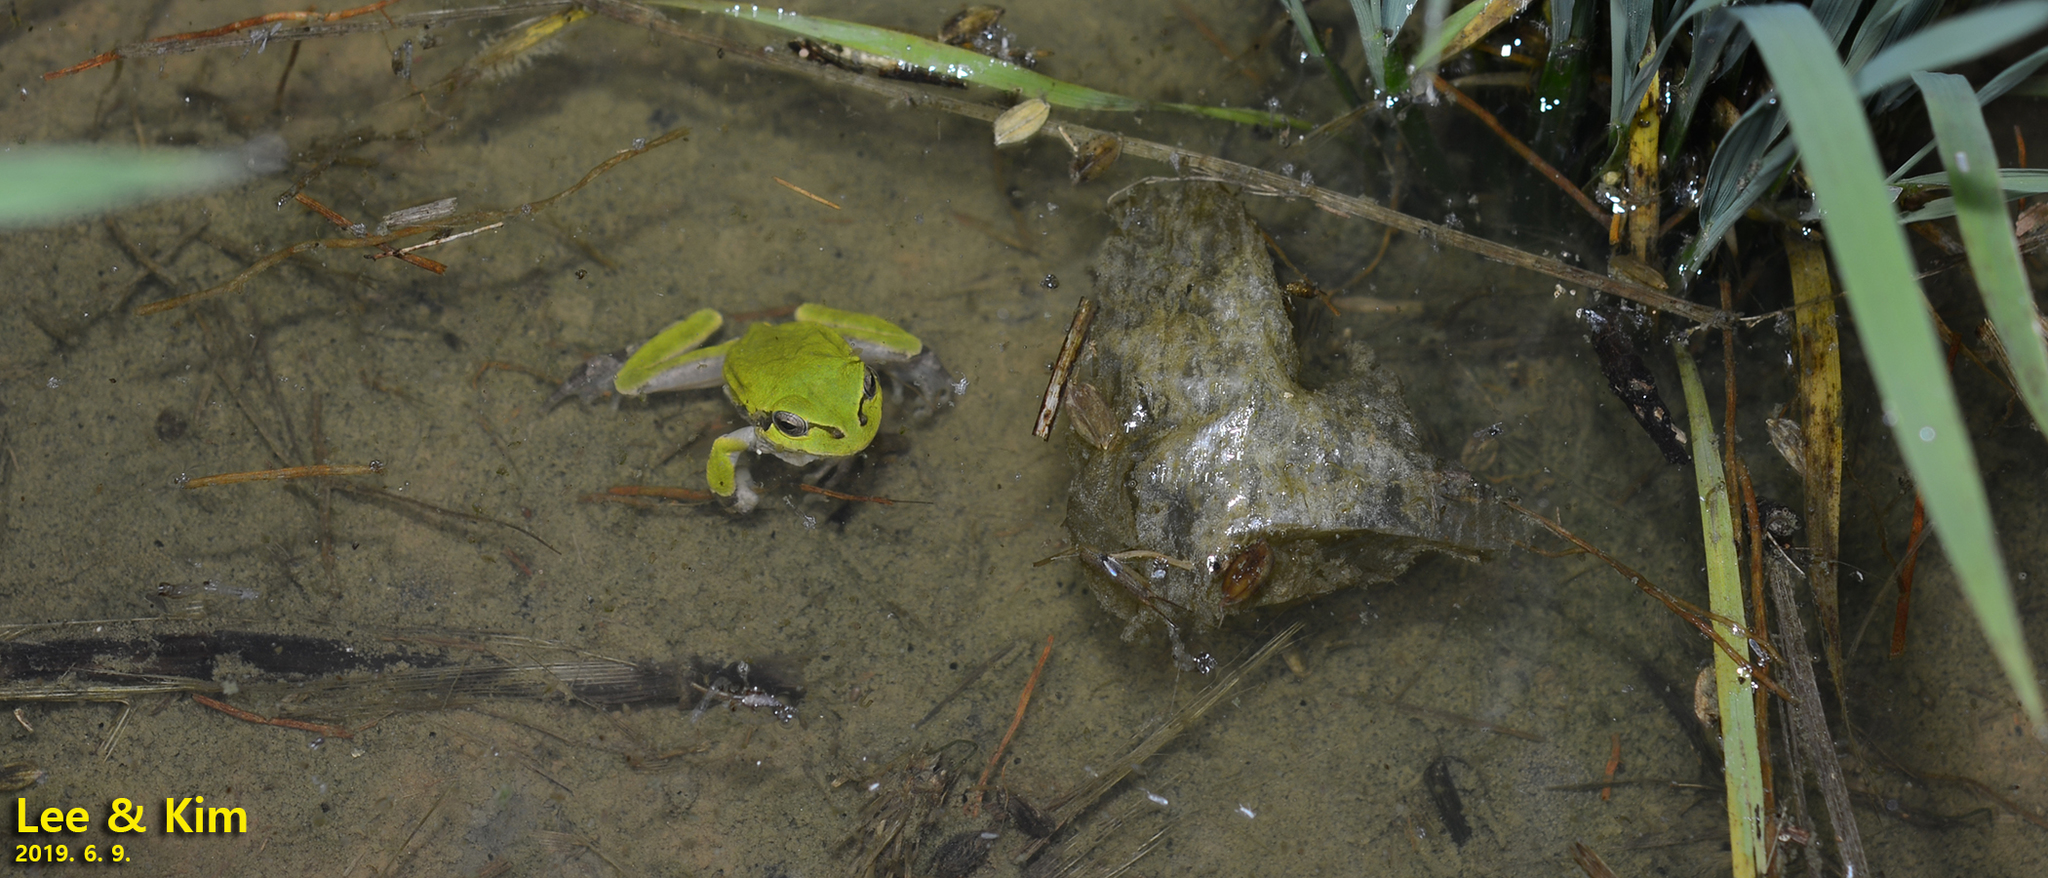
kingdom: Animalia
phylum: Chordata
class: Amphibia
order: Anura
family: Hylidae
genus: Dryophytes
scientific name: Dryophytes japonicus
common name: Japanese treefrog
